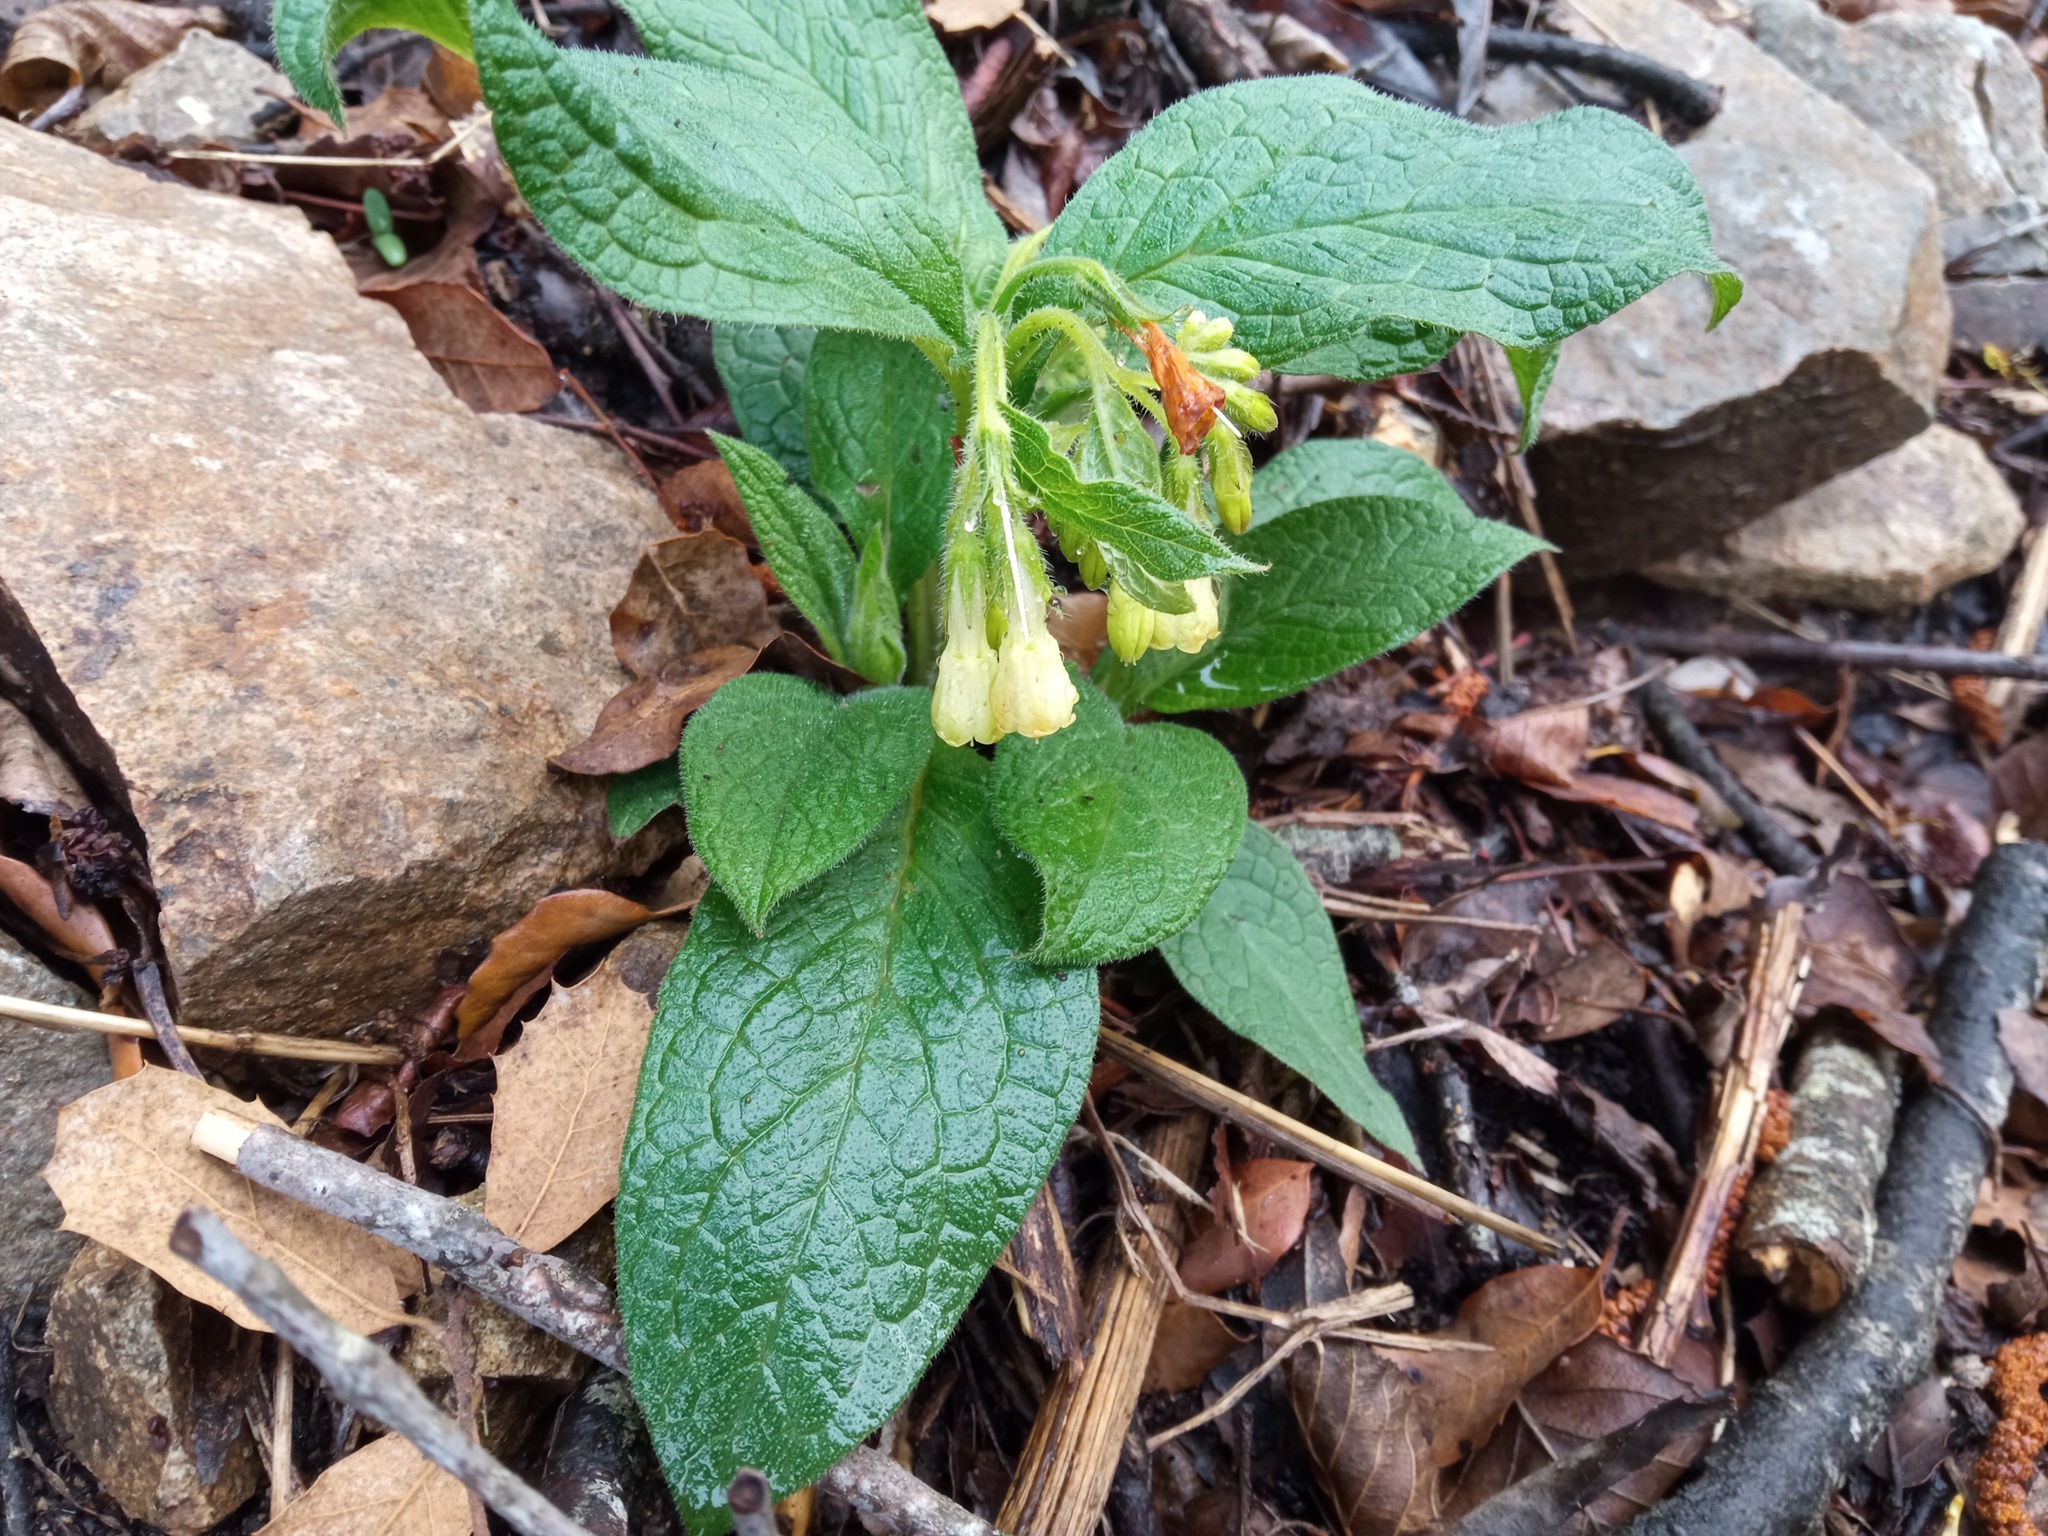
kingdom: Plantae
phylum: Tracheophyta
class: Magnoliopsida
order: Boraginales
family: Boraginaceae
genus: Symphytum
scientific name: Symphytum tuberosum
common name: Tuberous comfrey
